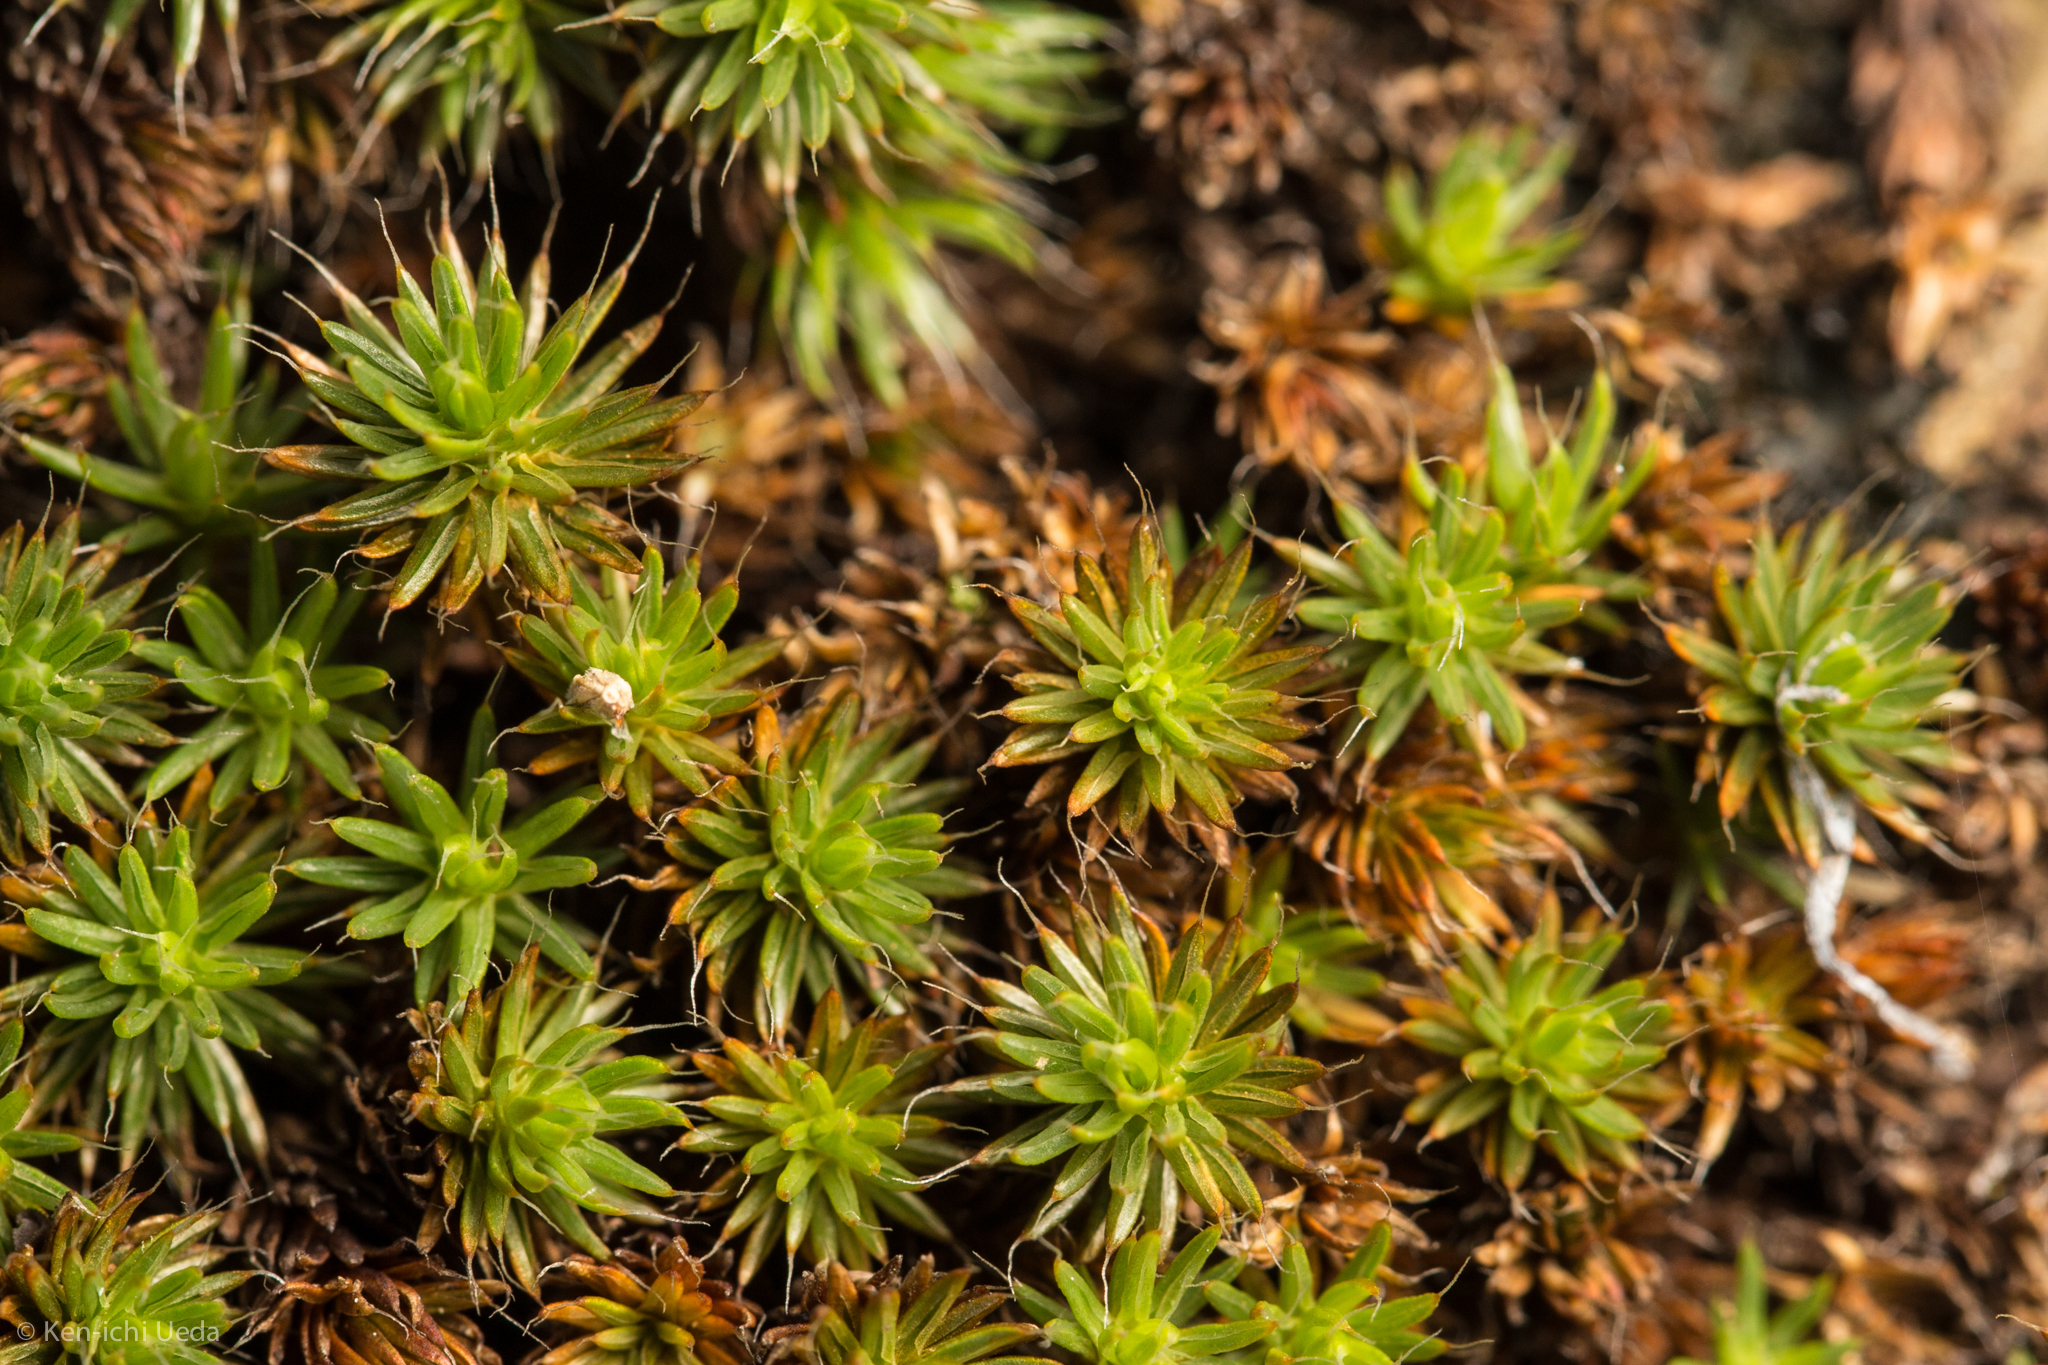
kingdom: Plantae
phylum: Bryophyta
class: Polytrichopsida
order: Polytrichales
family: Polytrichaceae
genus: Polytrichum
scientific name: Polytrichum piliferum
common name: Bristly haircap
